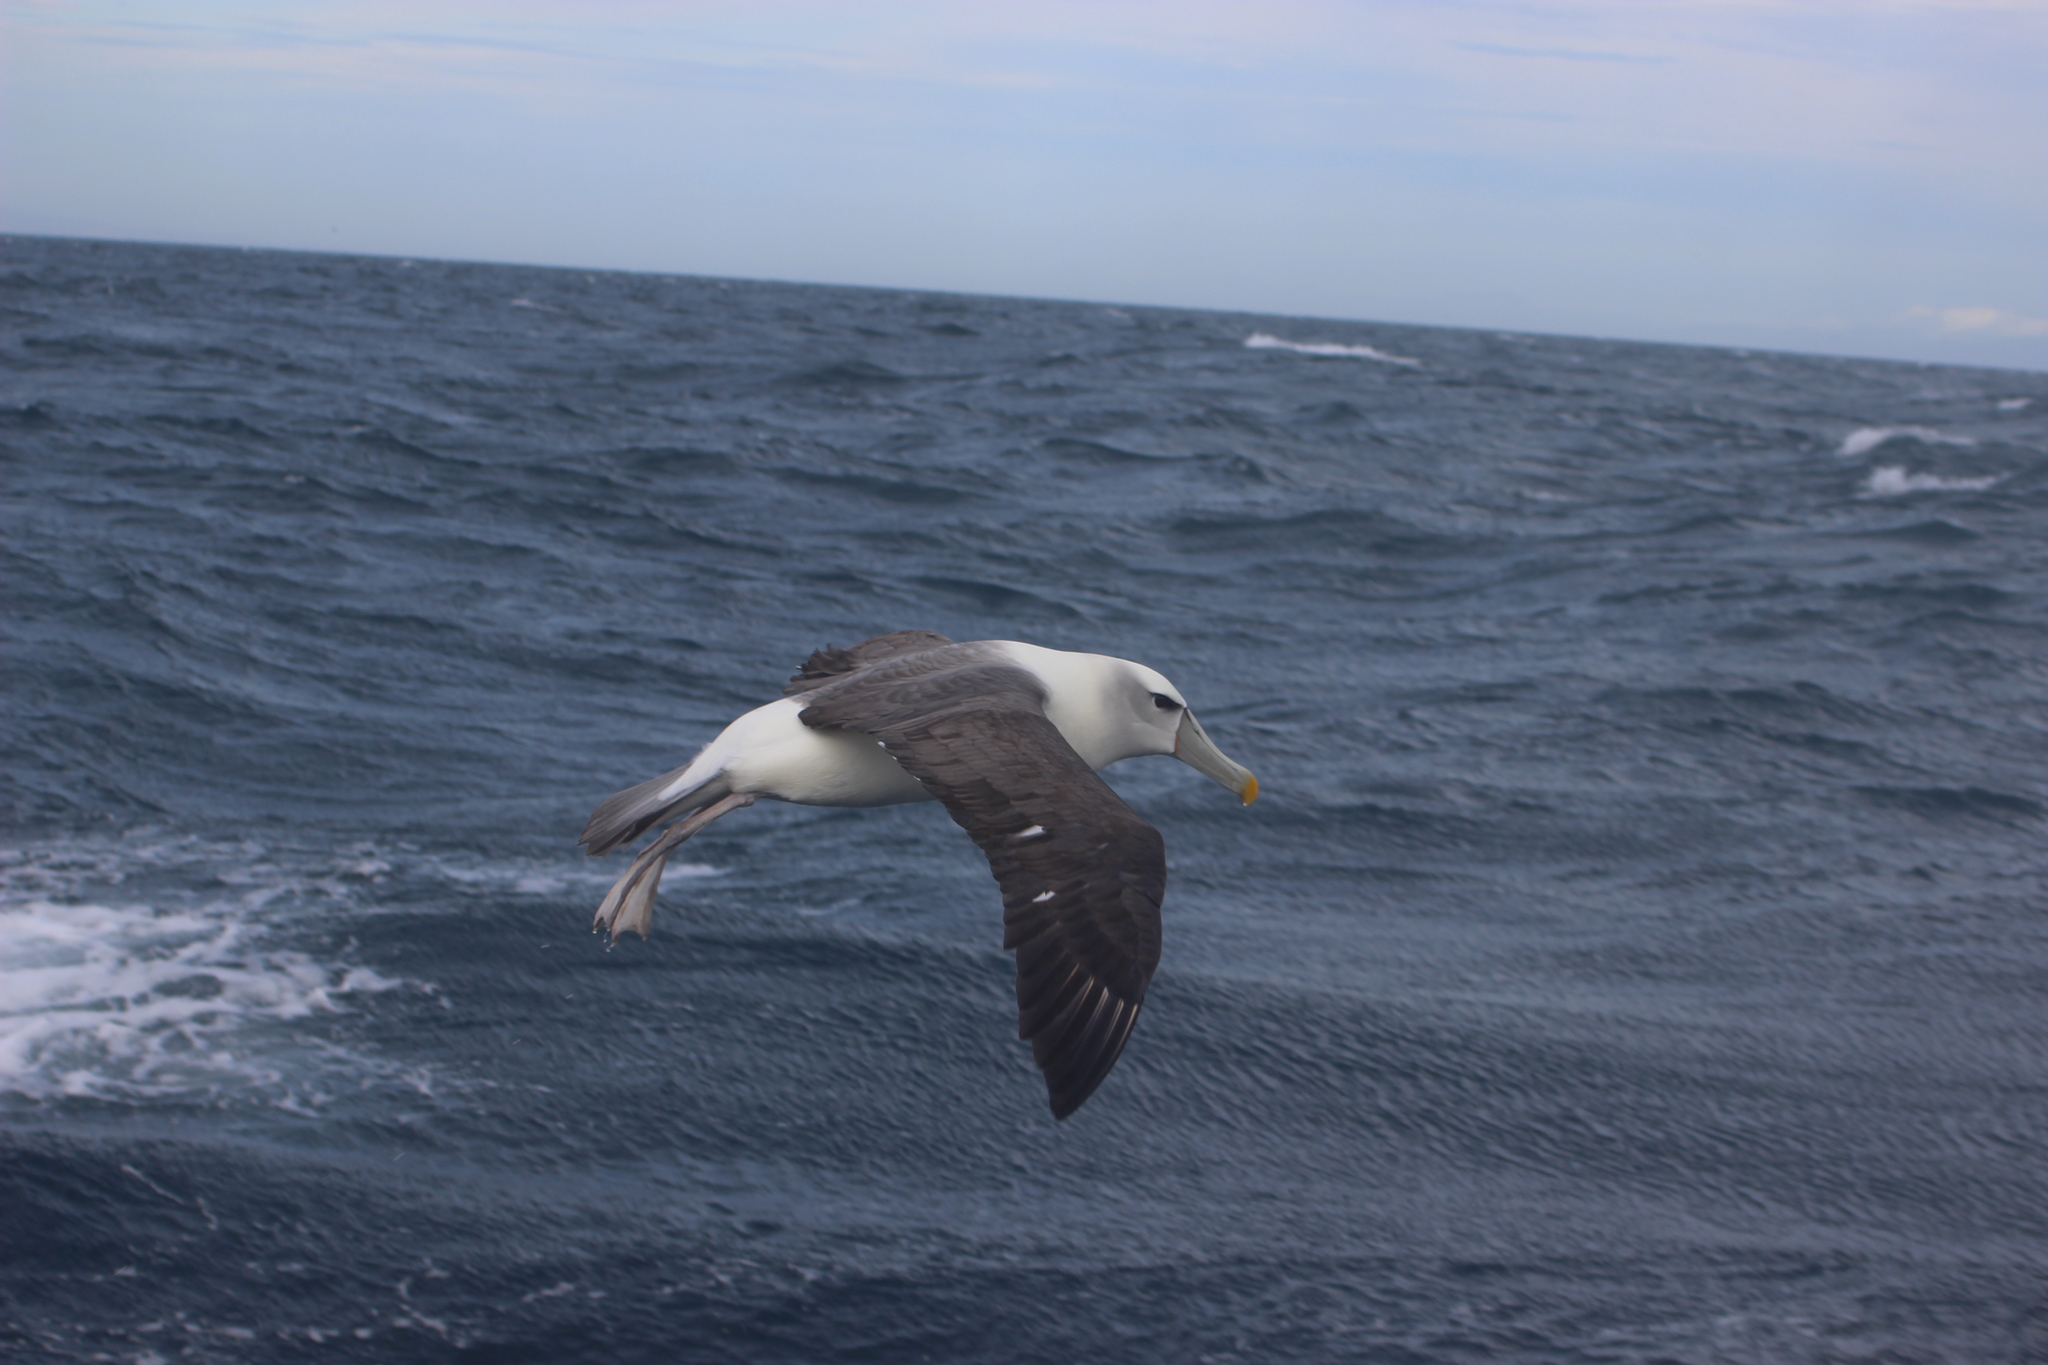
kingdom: Animalia
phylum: Chordata
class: Aves
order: Procellariiformes
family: Diomedeidae
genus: Thalassarche
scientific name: Thalassarche cauta
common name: Shy albatross
